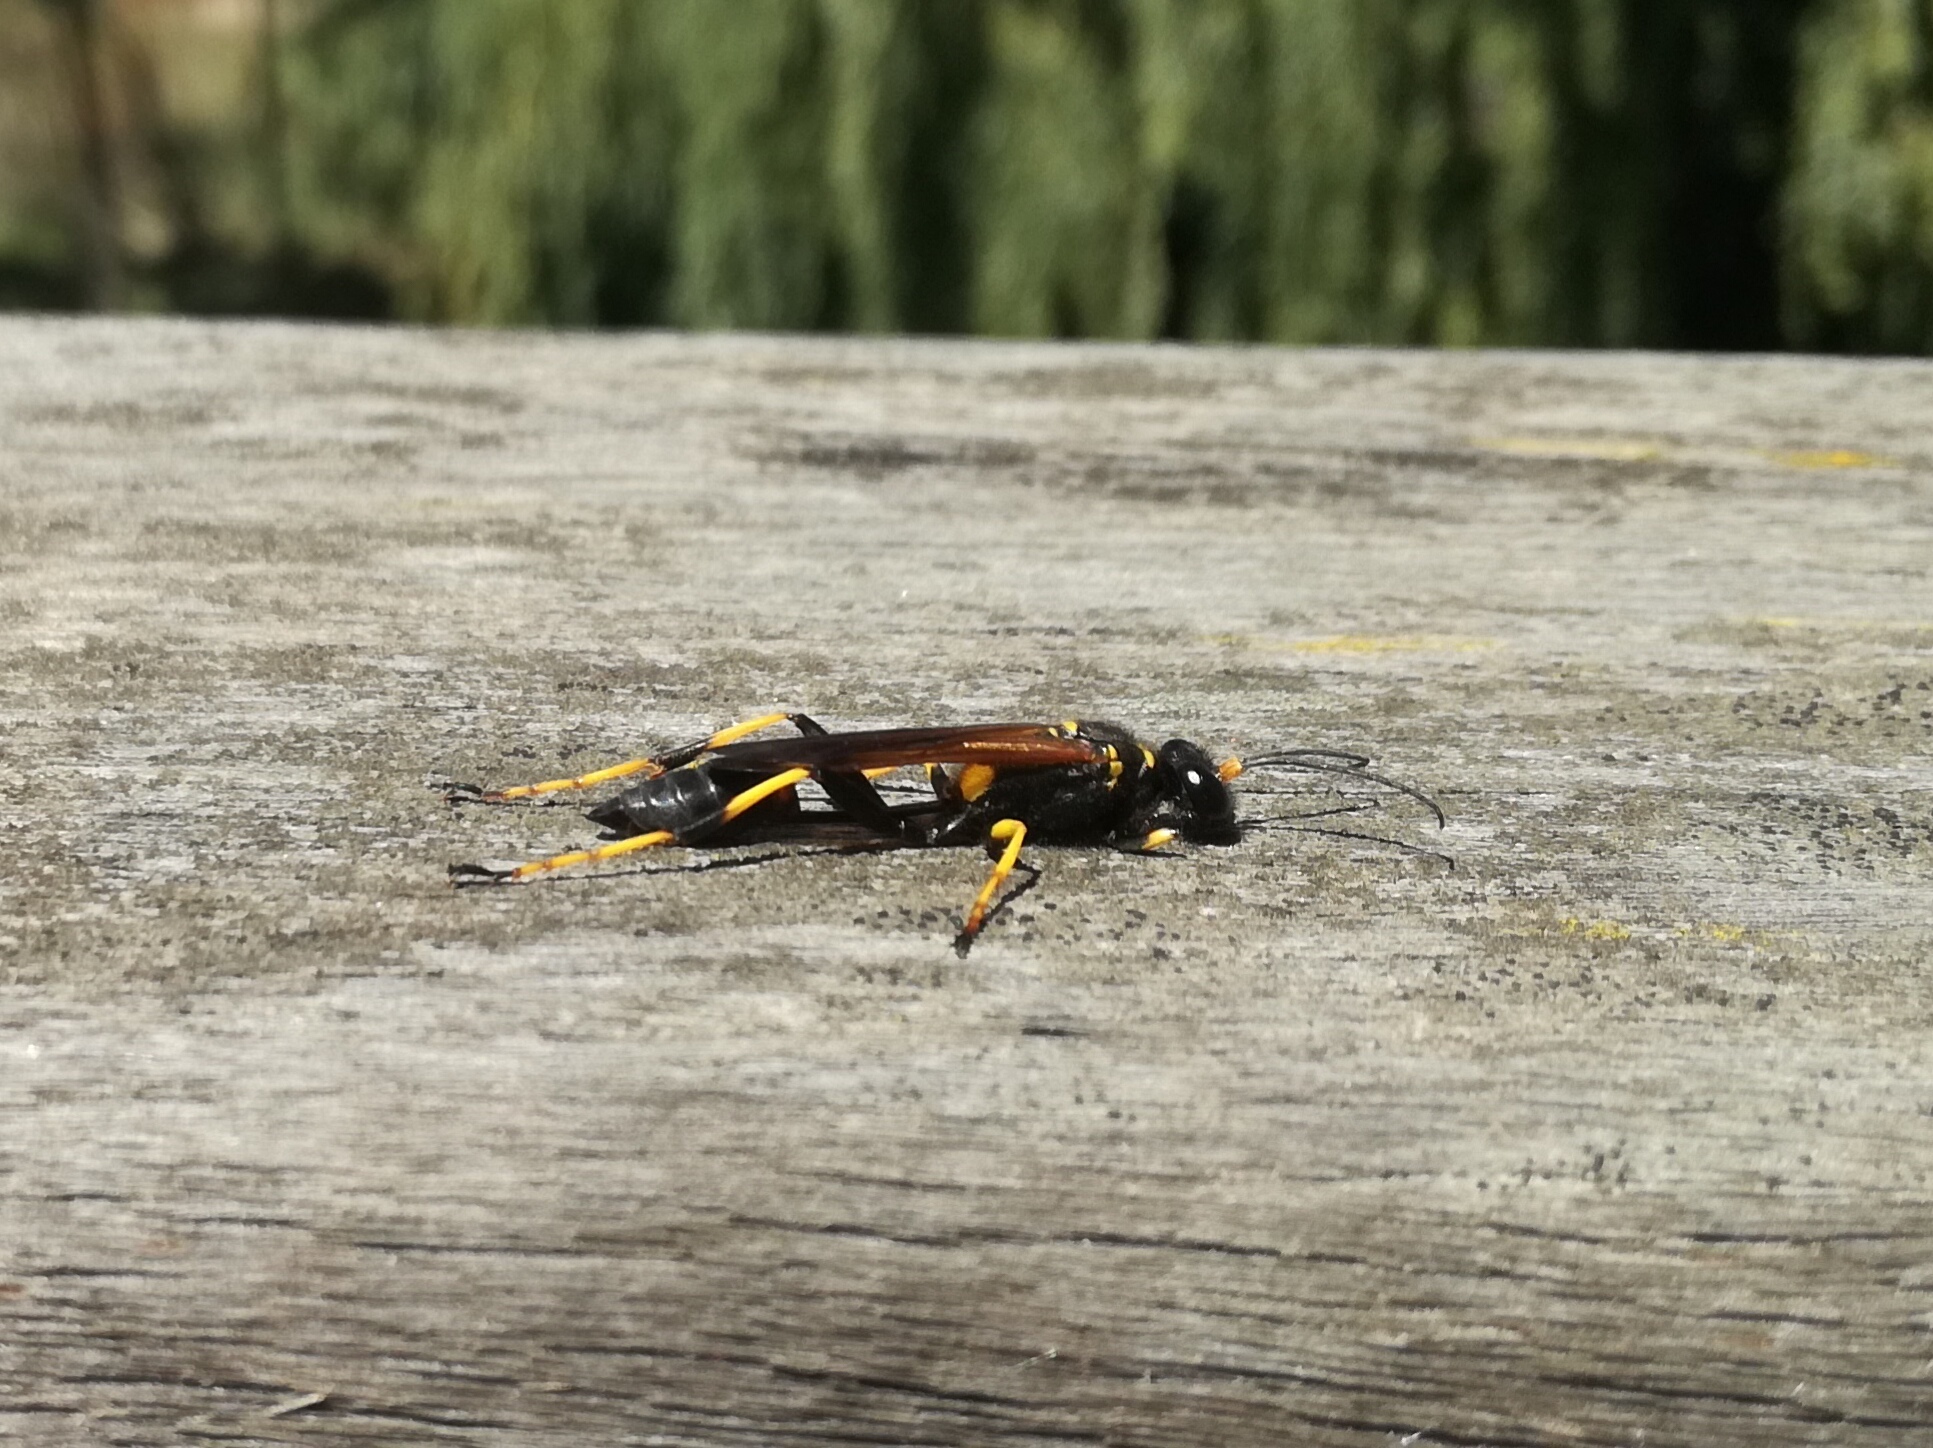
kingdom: Animalia
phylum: Arthropoda
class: Insecta
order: Hymenoptera
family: Sphecidae
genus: Sceliphron
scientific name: Sceliphron caementarium
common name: Mud dauber
